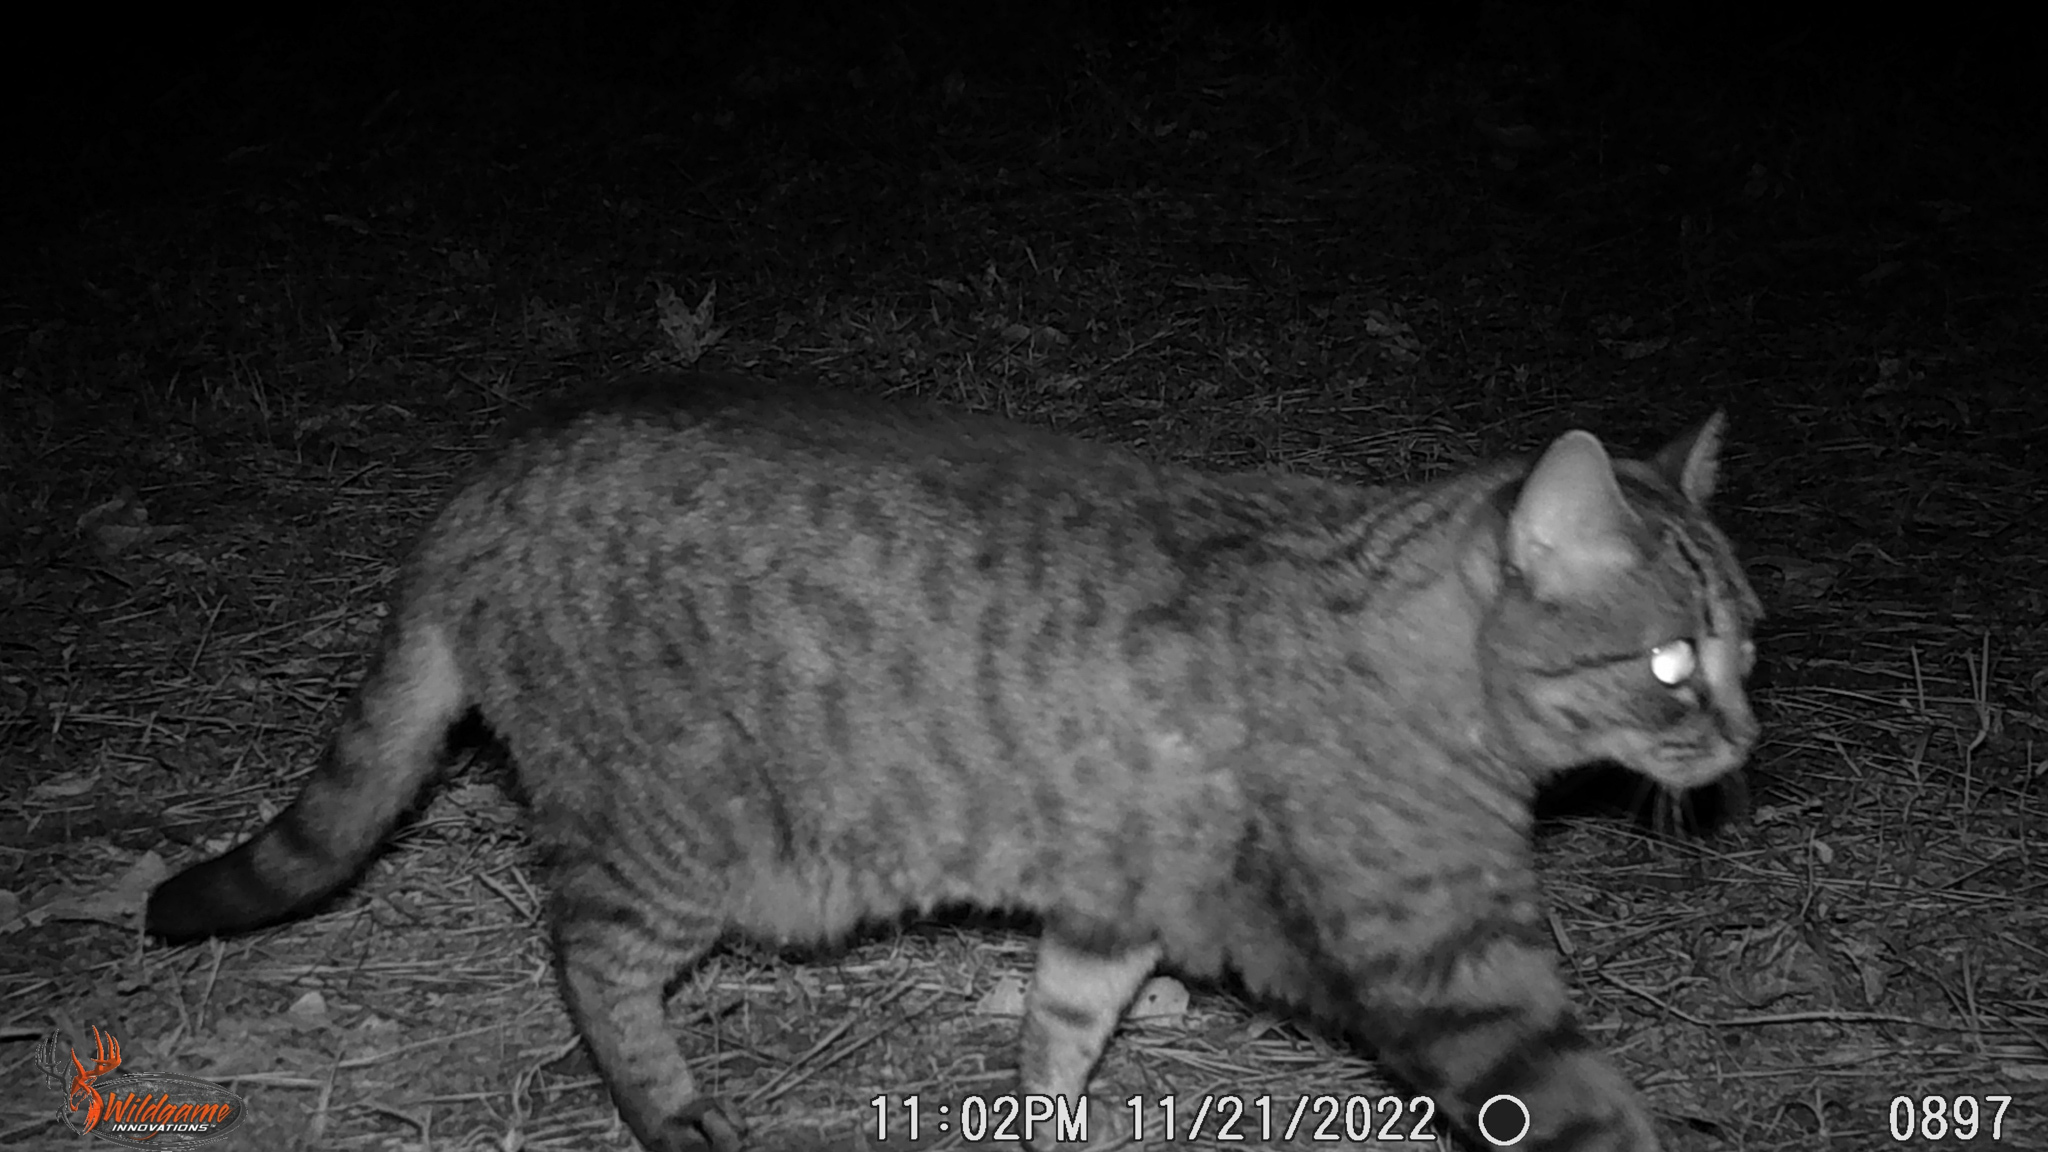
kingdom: Animalia
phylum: Chordata
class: Mammalia
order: Carnivora
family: Felidae
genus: Felis
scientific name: Felis catus
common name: Domestic cat
